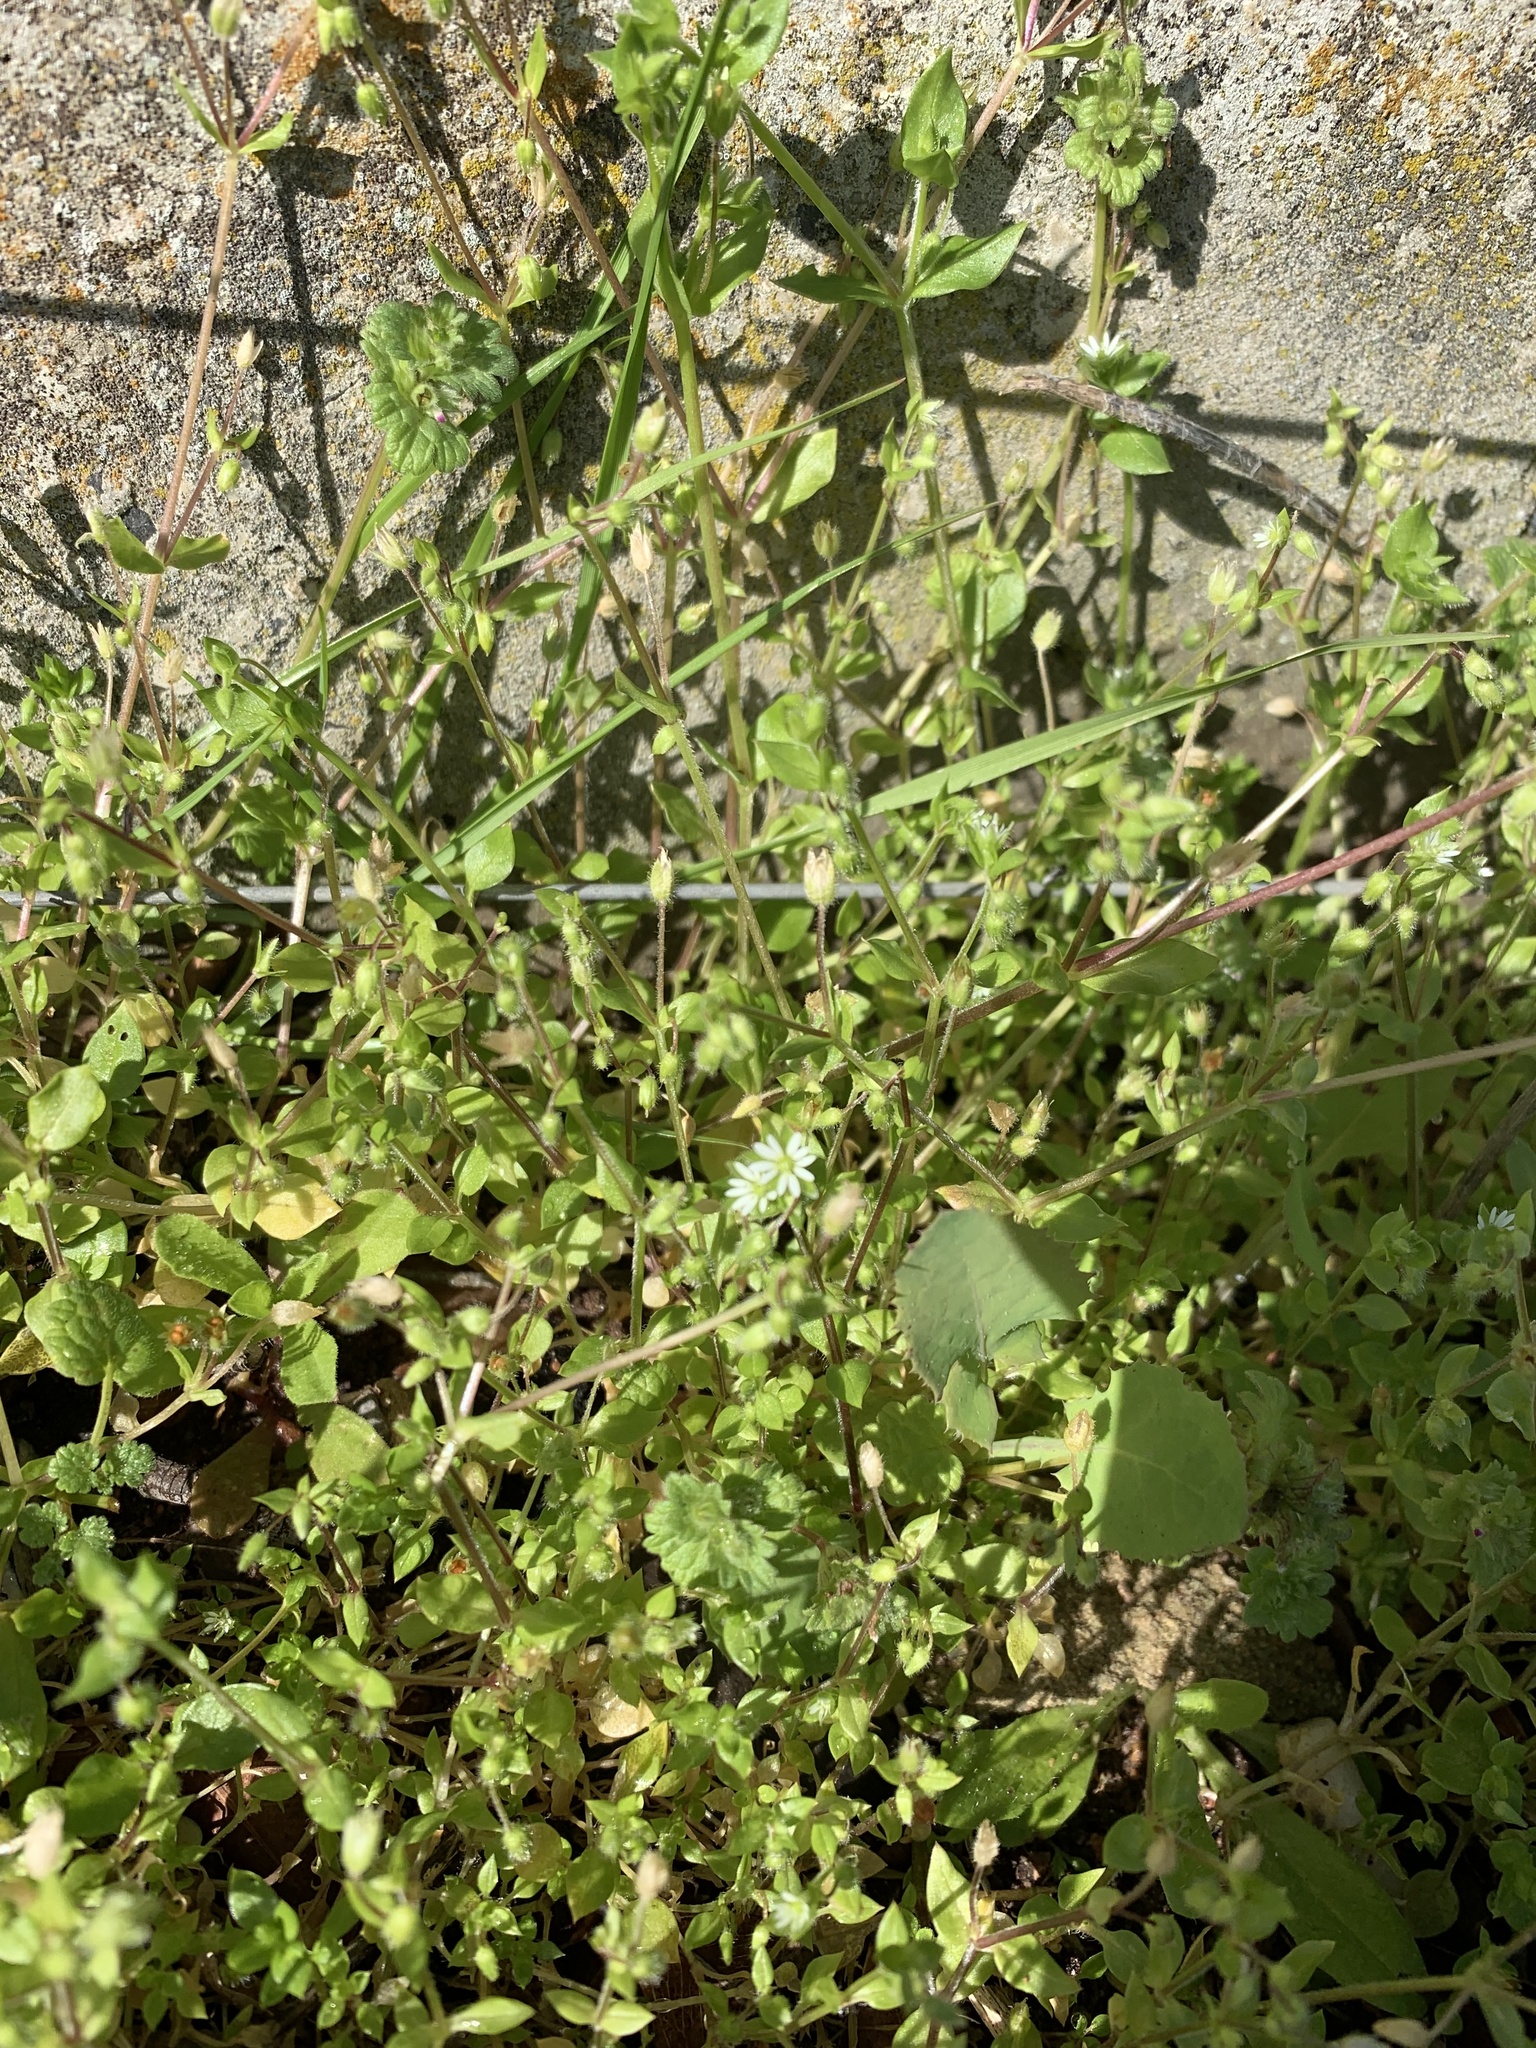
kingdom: Plantae
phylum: Tracheophyta
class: Magnoliopsida
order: Caryophyllales
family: Caryophyllaceae
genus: Stellaria
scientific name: Stellaria media
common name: Common chickweed
